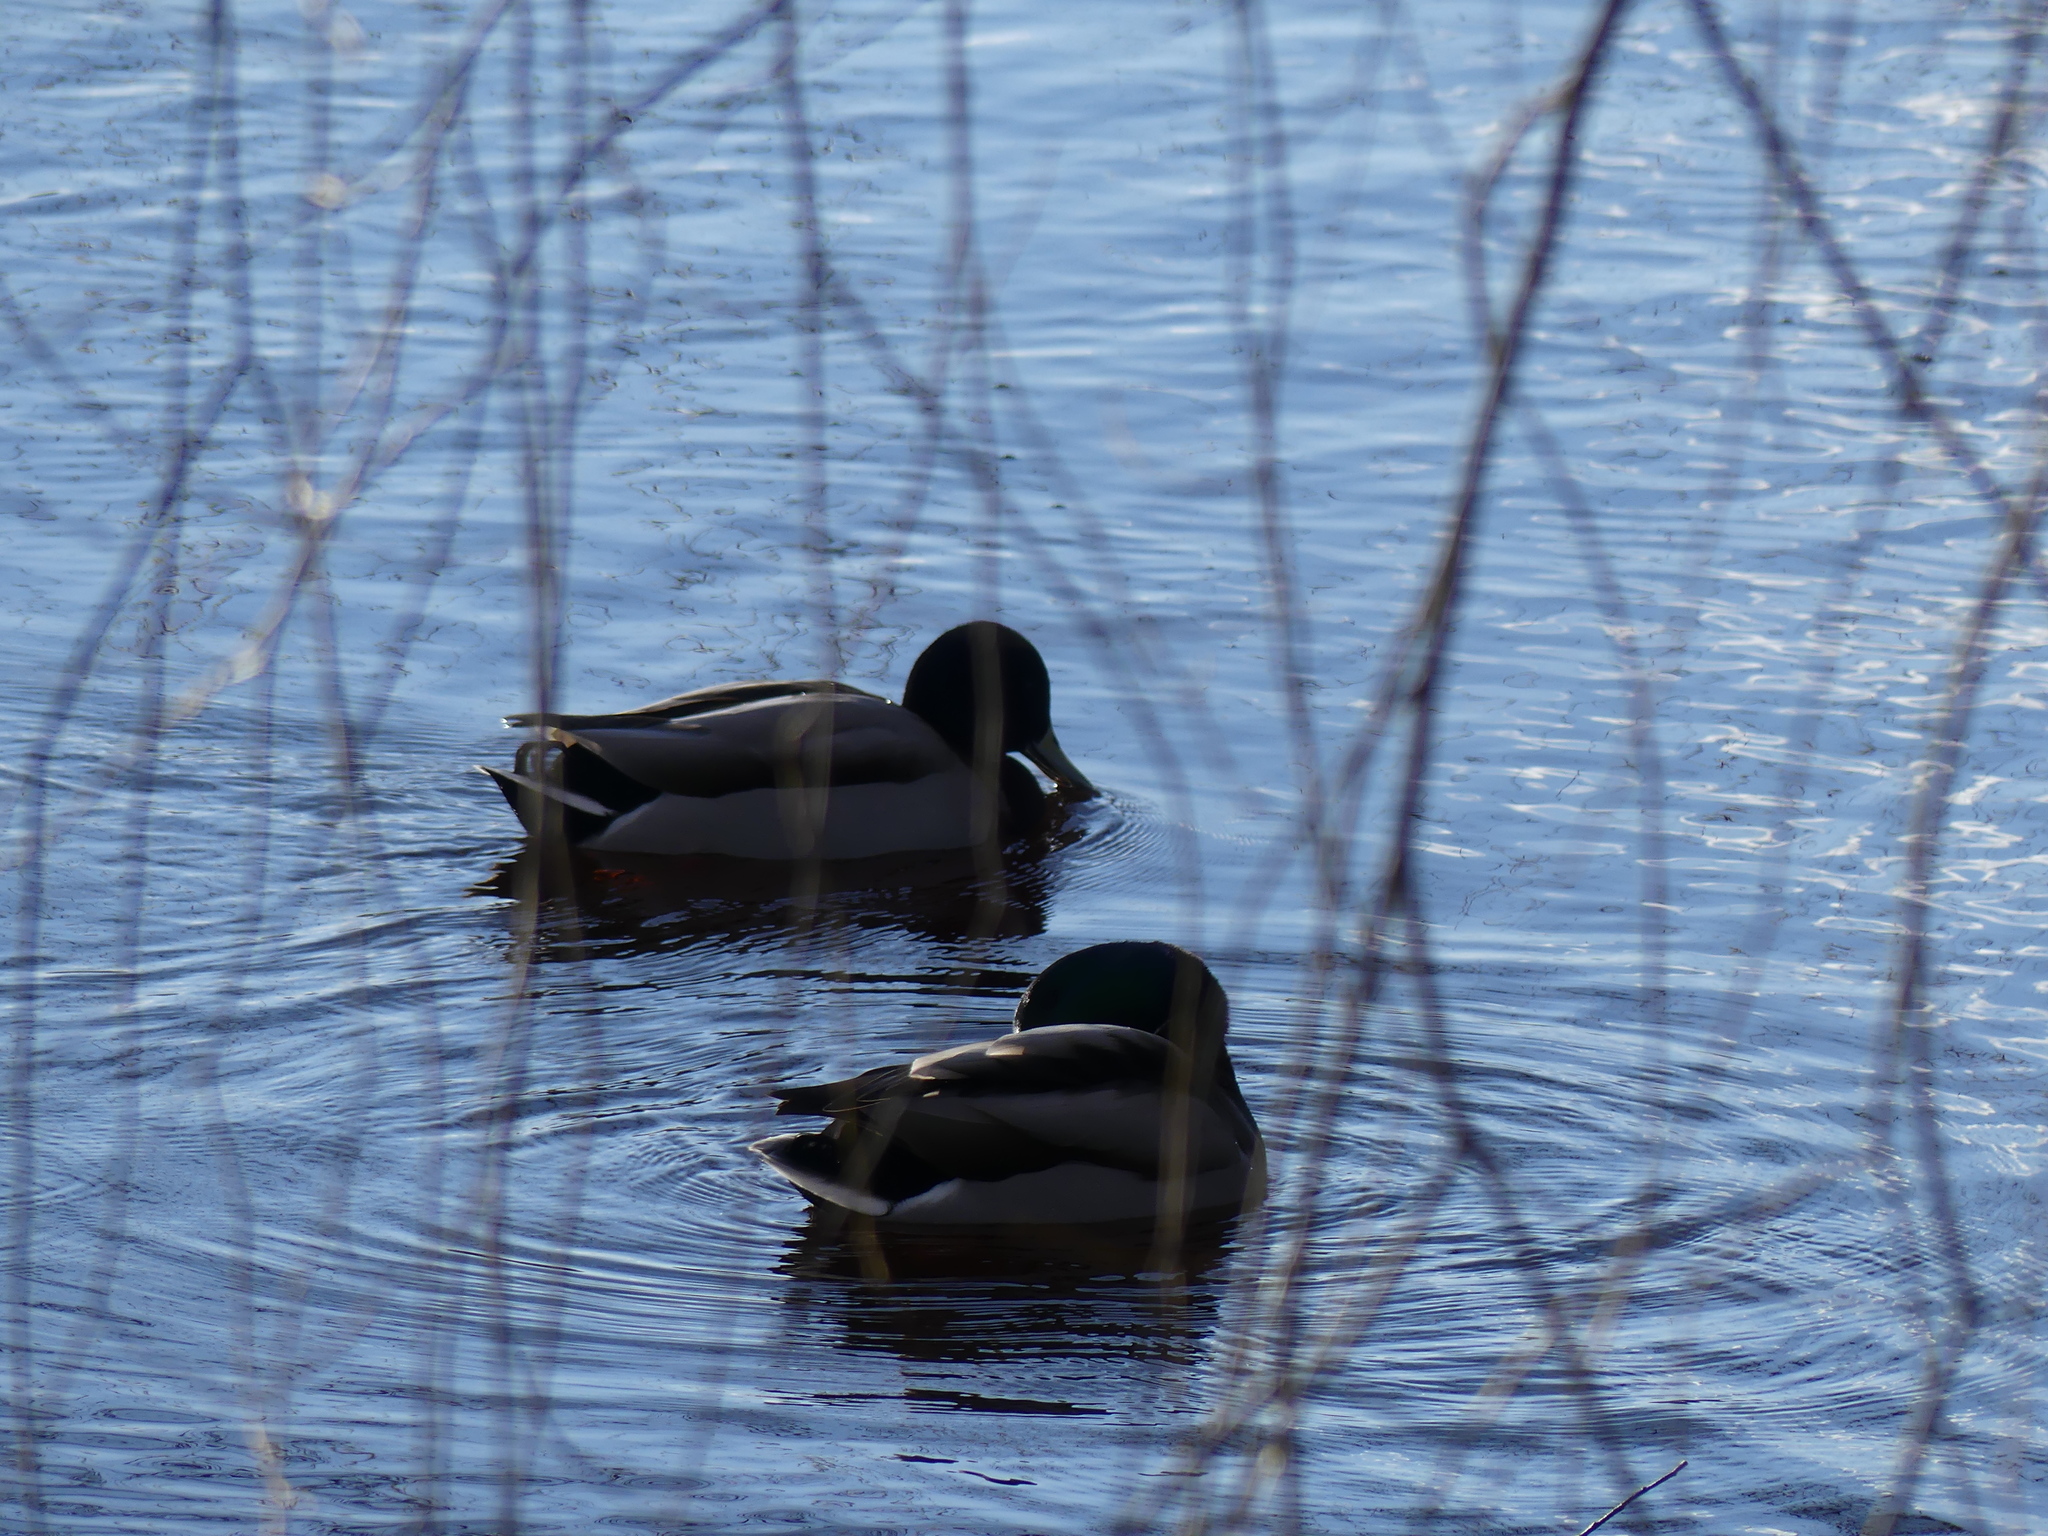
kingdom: Animalia
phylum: Chordata
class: Aves
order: Anseriformes
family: Anatidae
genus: Anas
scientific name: Anas platyrhynchos
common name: Mallard
